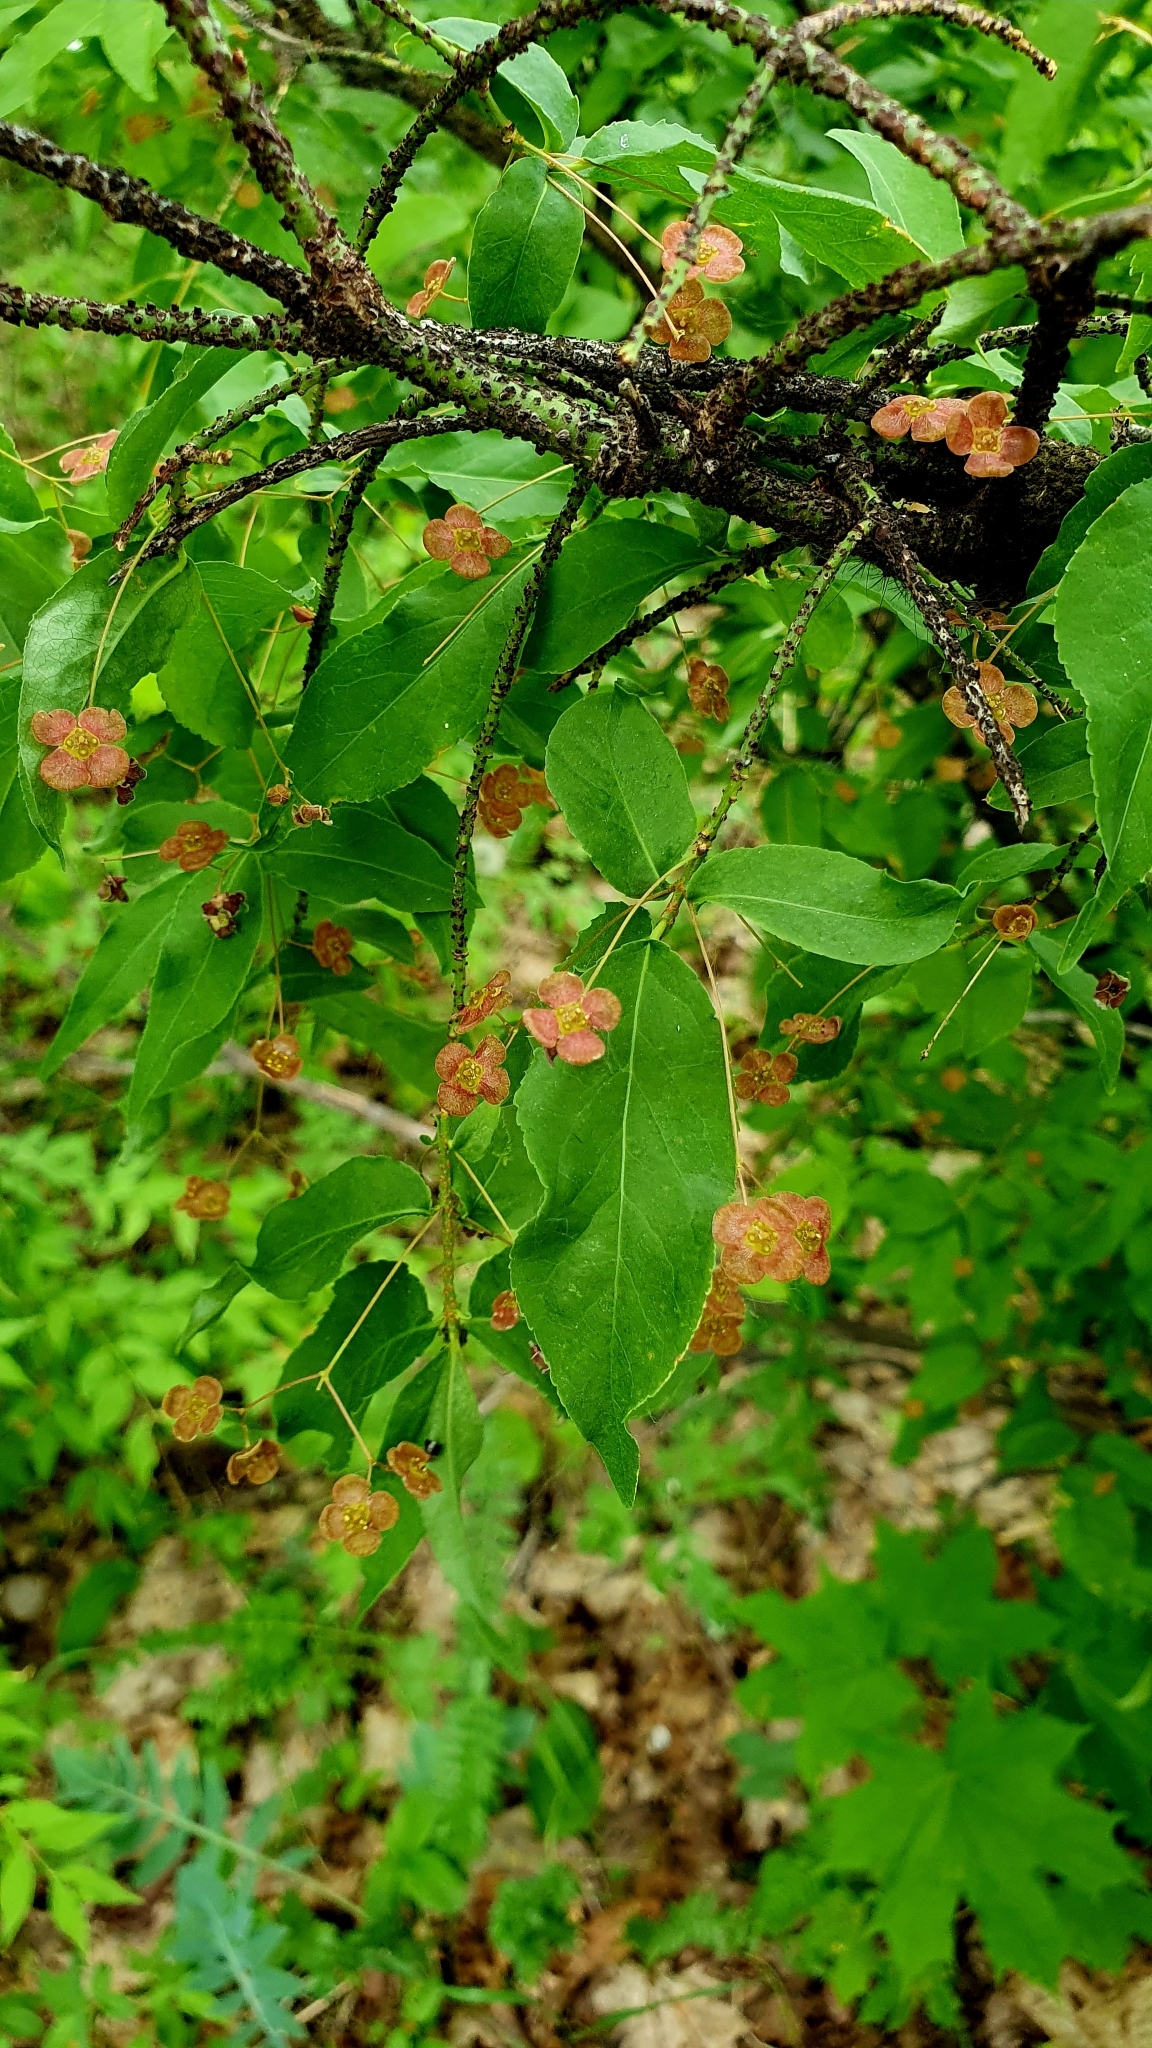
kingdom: Plantae
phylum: Tracheophyta
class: Magnoliopsida
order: Celastrales
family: Celastraceae
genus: Euonymus
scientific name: Euonymus verrucosus
